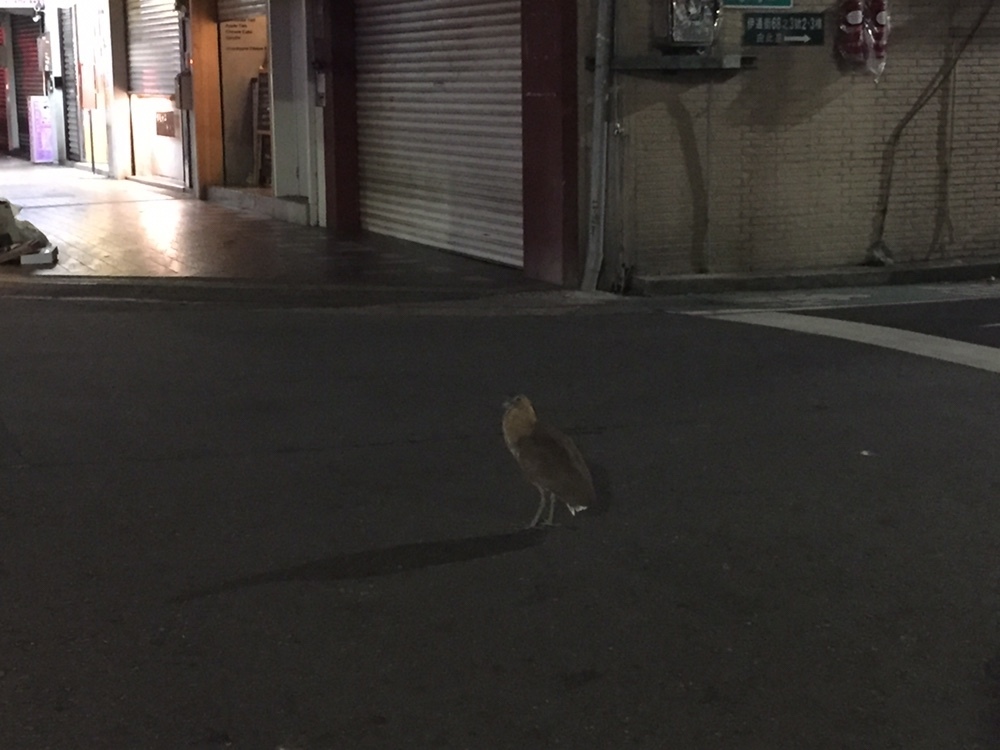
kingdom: Animalia
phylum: Chordata
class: Aves
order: Pelecaniformes
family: Ardeidae
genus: Gorsachius
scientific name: Gorsachius melanolophus
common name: Malayan night heron
